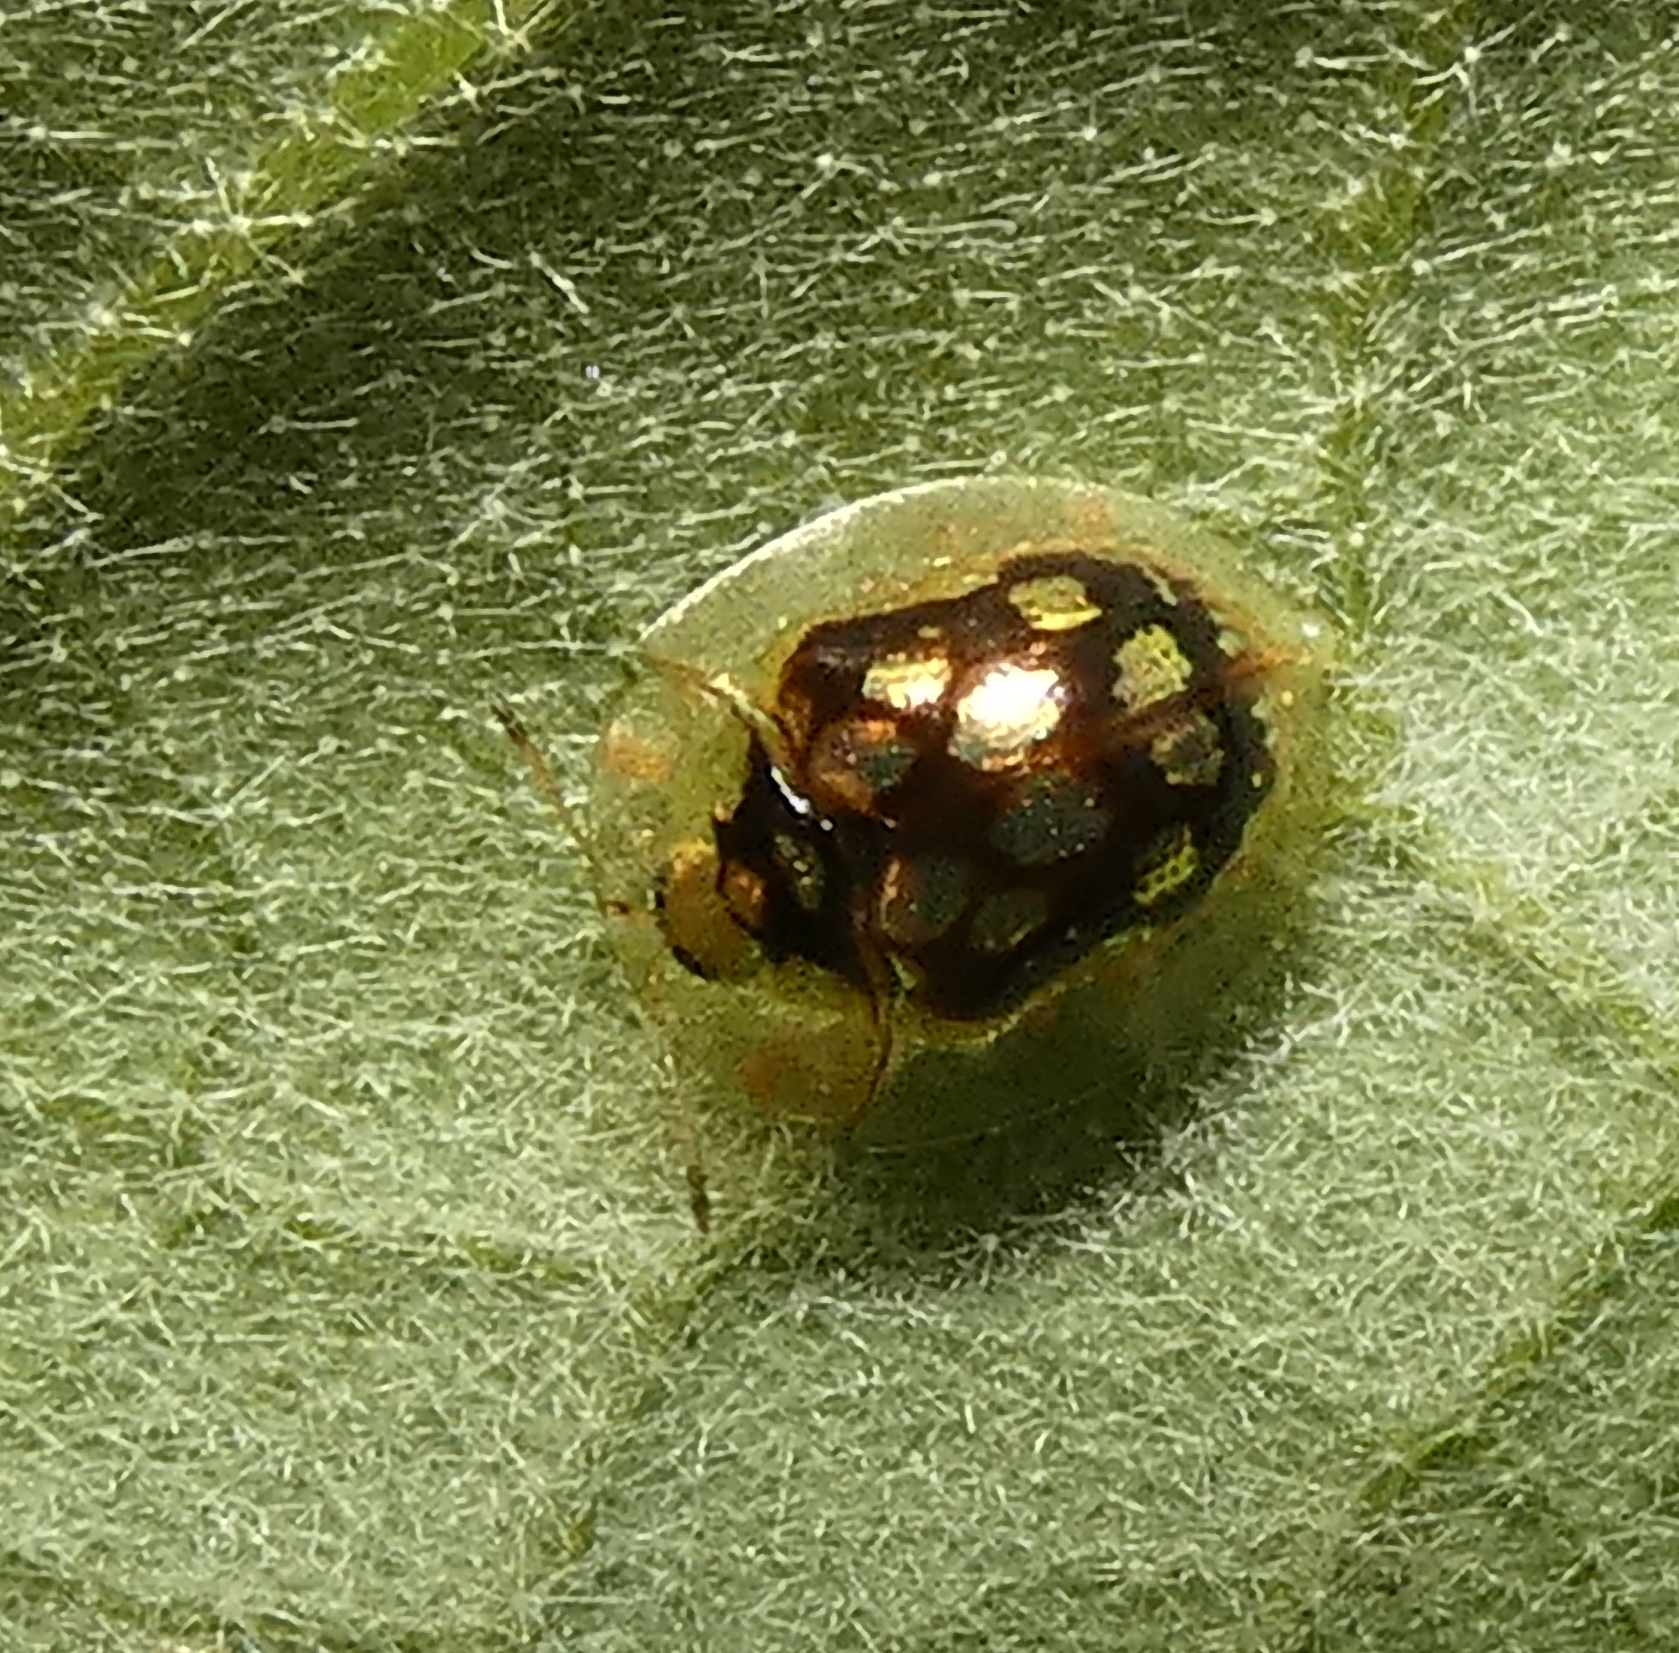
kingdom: Animalia
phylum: Arthropoda
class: Insecta
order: Coleoptera
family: Chrysomelidae
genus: Plagiometriona
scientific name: Plagiometriona microcera
